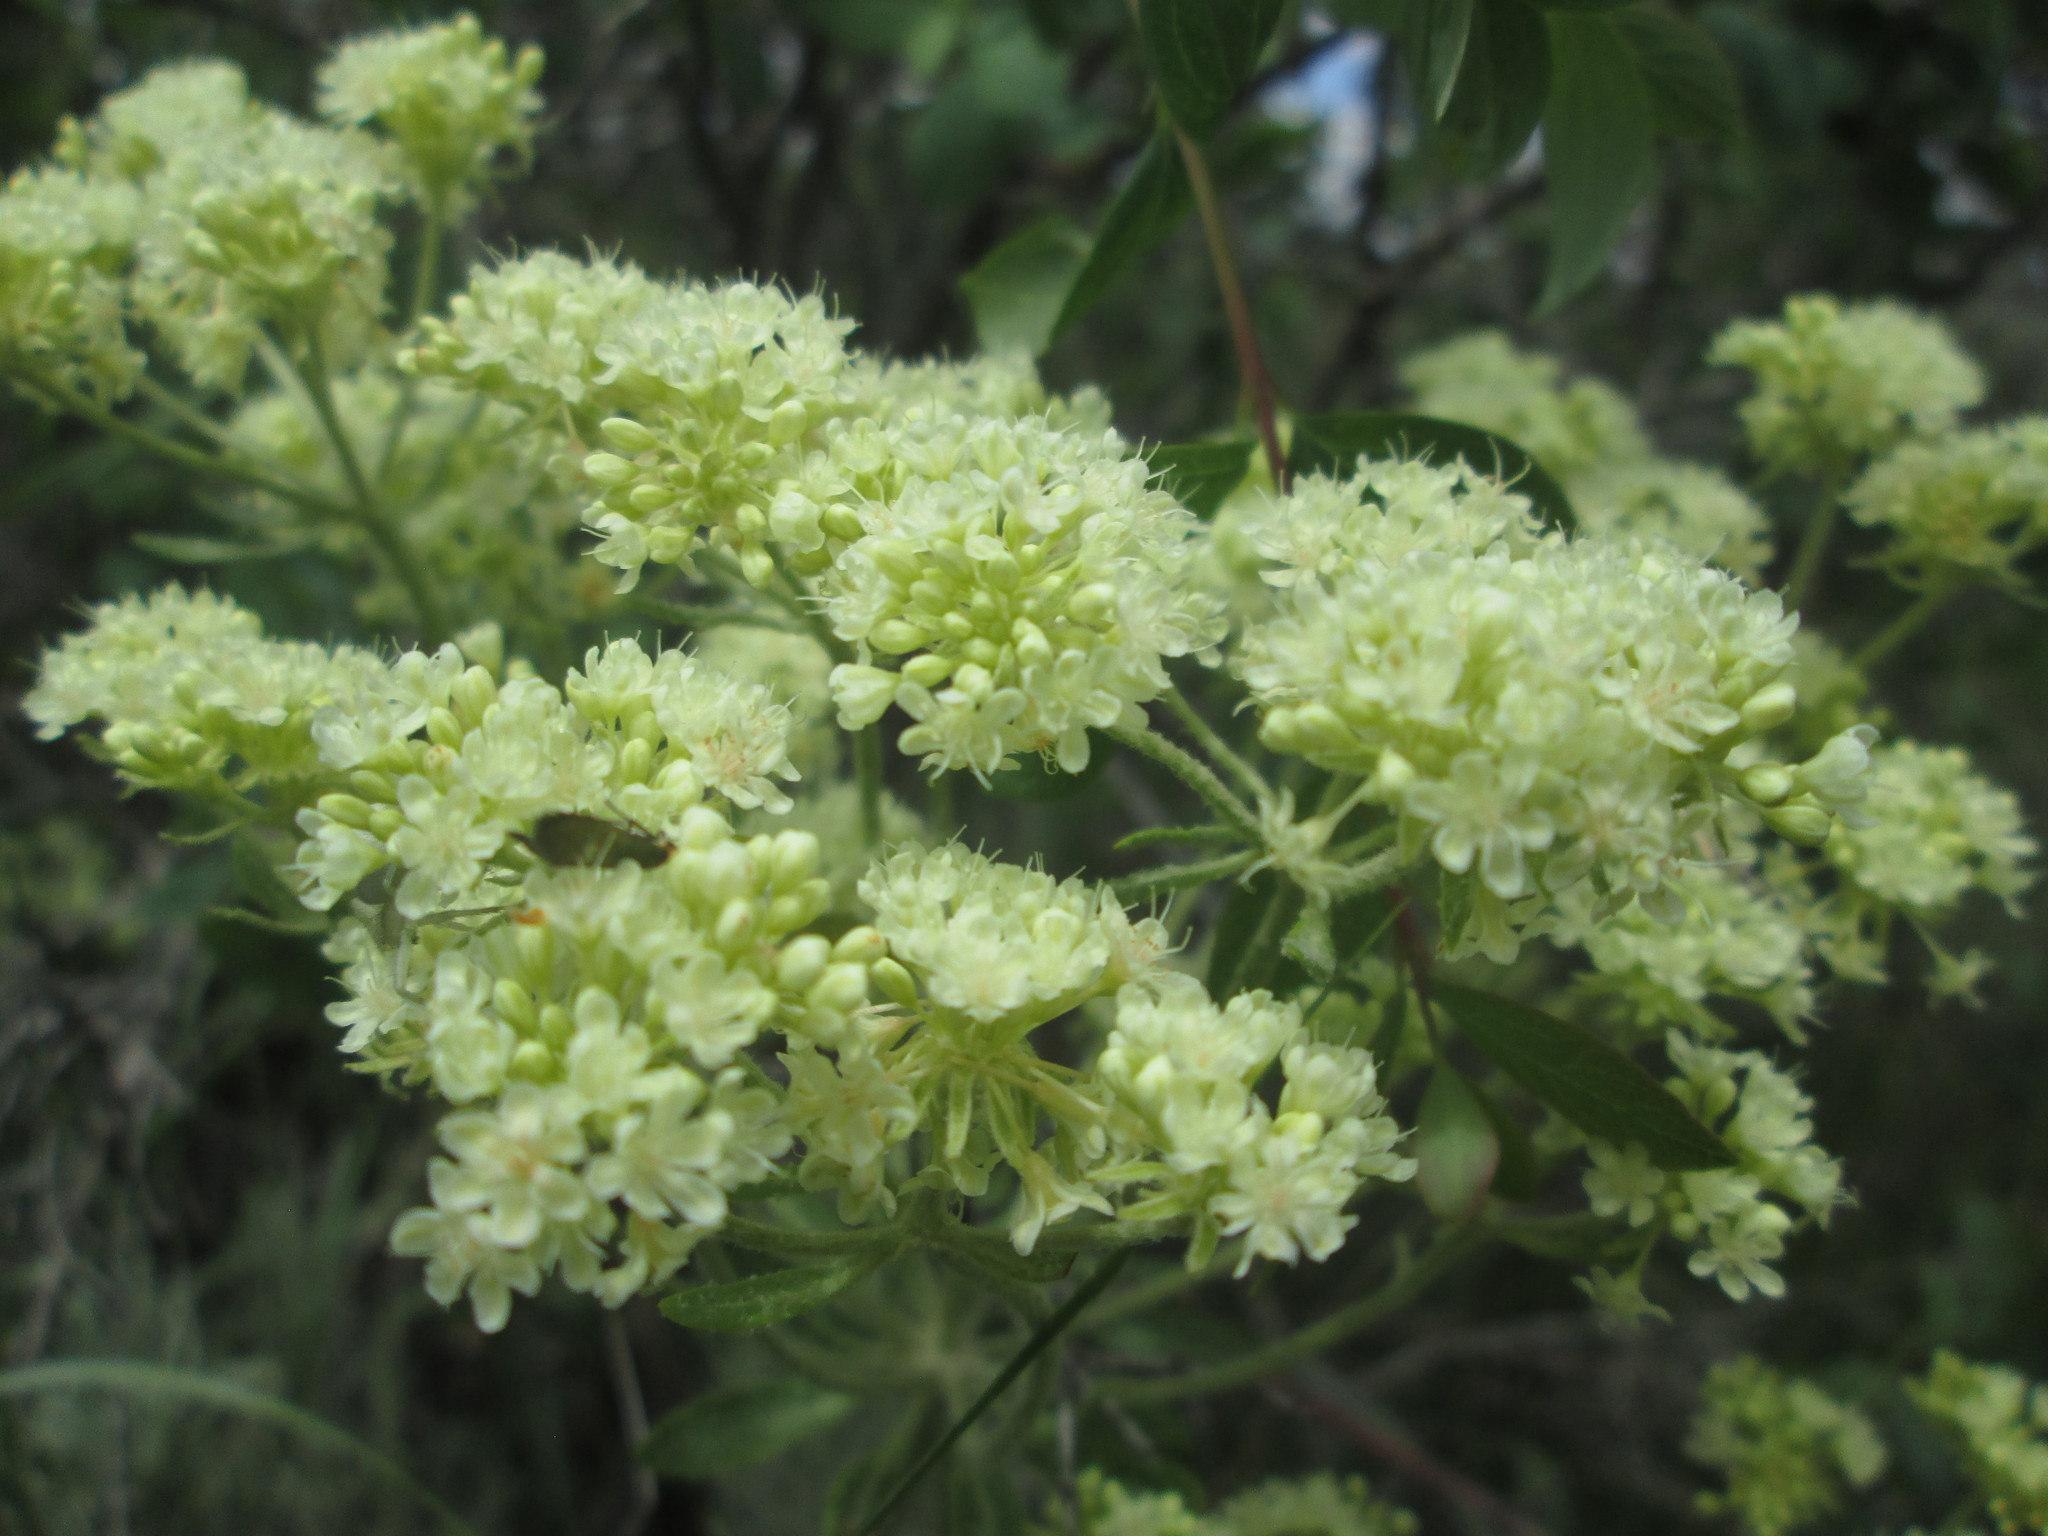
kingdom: Plantae
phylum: Tracheophyta
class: Magnoliopsida
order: Caryophyllales
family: Polygonaceae
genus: Eriogonum
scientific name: Eriogonum heracleoides
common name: Wyeth's buckwheat
